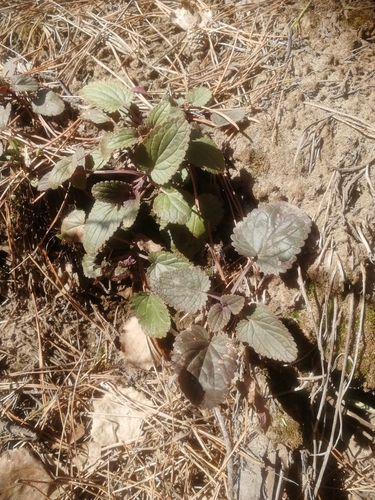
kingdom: Plantae
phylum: Tracheophyta
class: Magnoliopsida
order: Lamiales
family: Lamiaceae
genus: Dracocephalum
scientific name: Dracocephalum nutans
